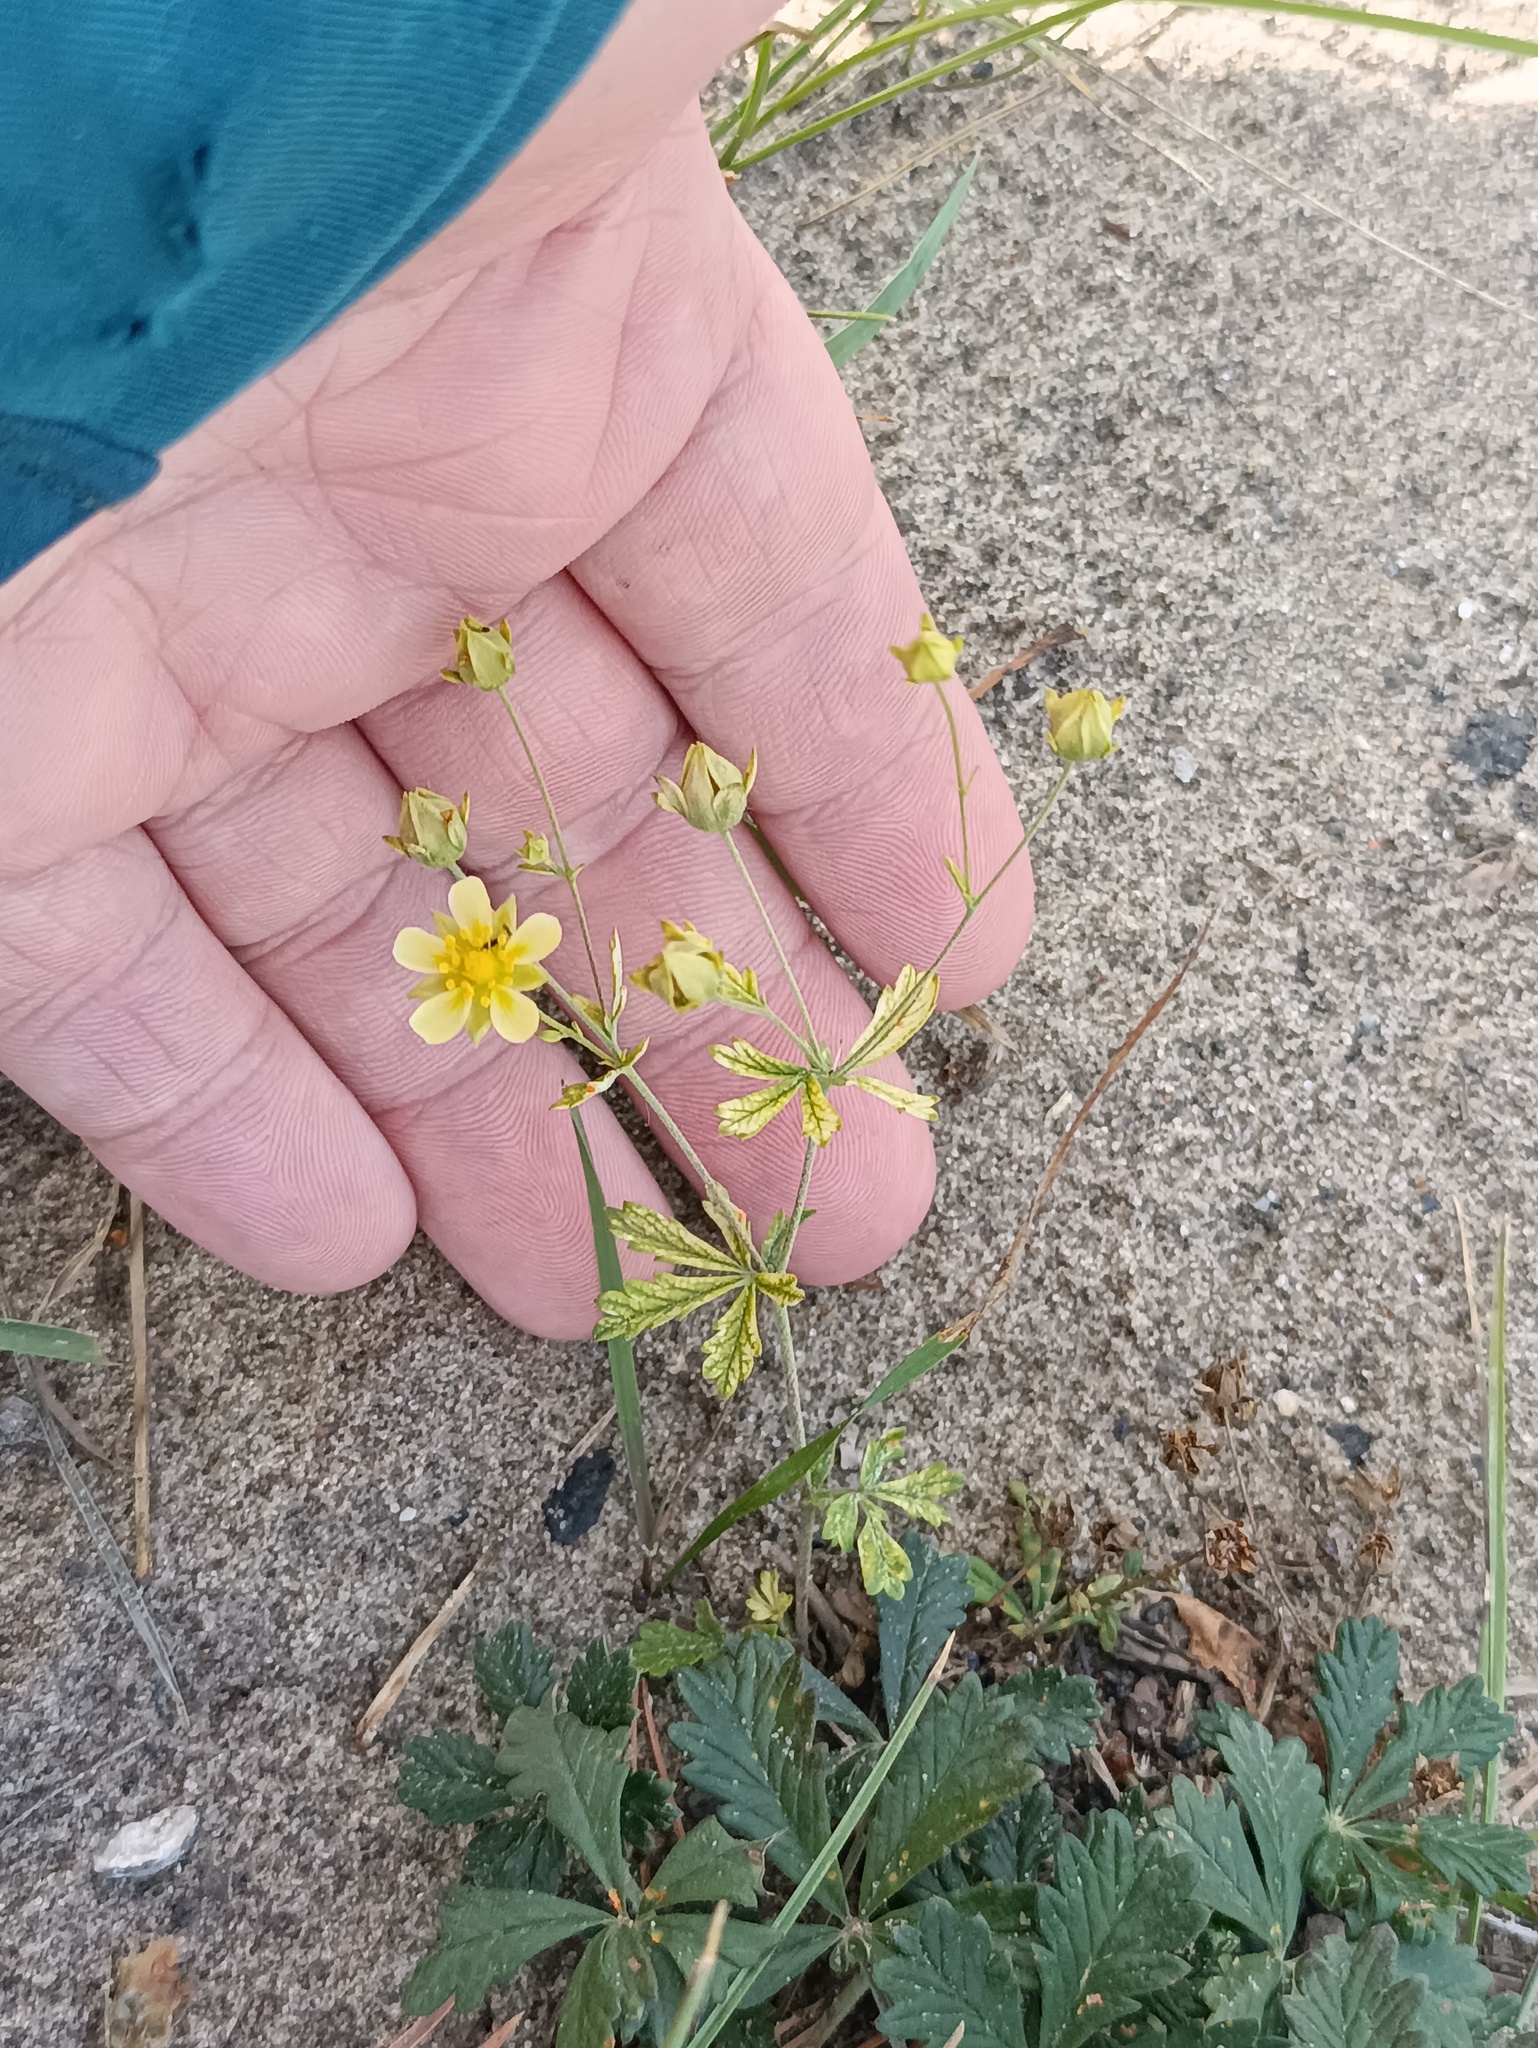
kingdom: Plantae
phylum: Tracheophyta
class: Magnoliopsida
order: Rosales
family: Rosaceae
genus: Potentilla
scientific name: Potentilla argentea
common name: Hoary cinquefoil
